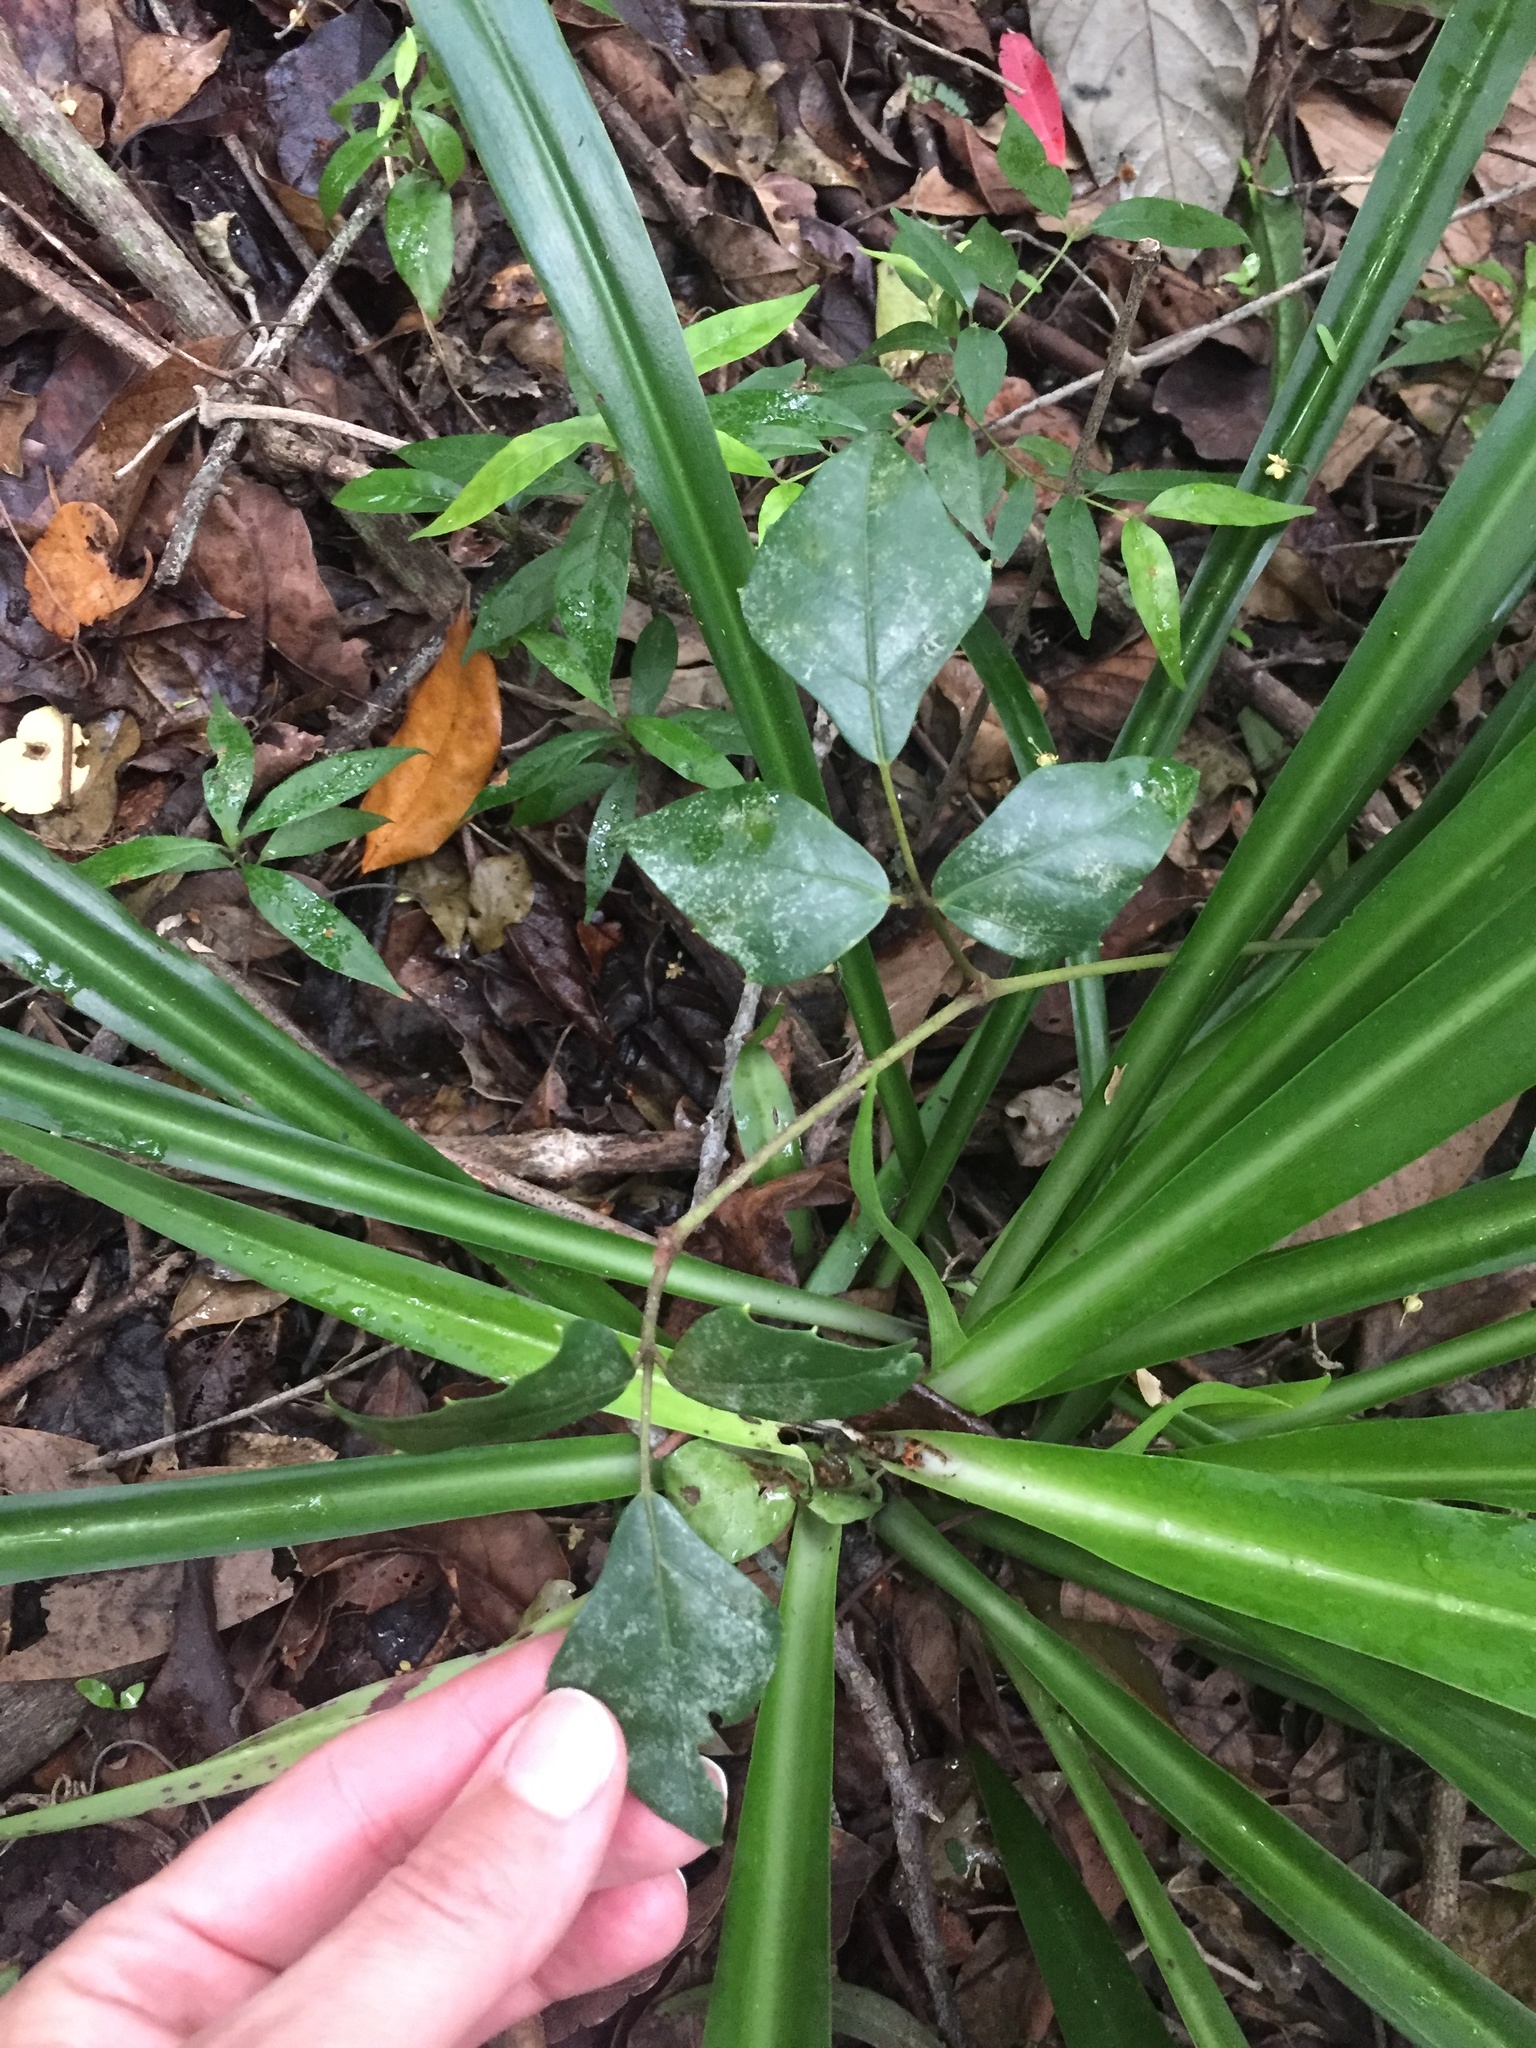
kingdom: Plantae
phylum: Tracheophyta
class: Magnoliopsida
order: Vitales
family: Vitaceae
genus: Rhoicissus
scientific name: Rhoicissus rhomboidea
